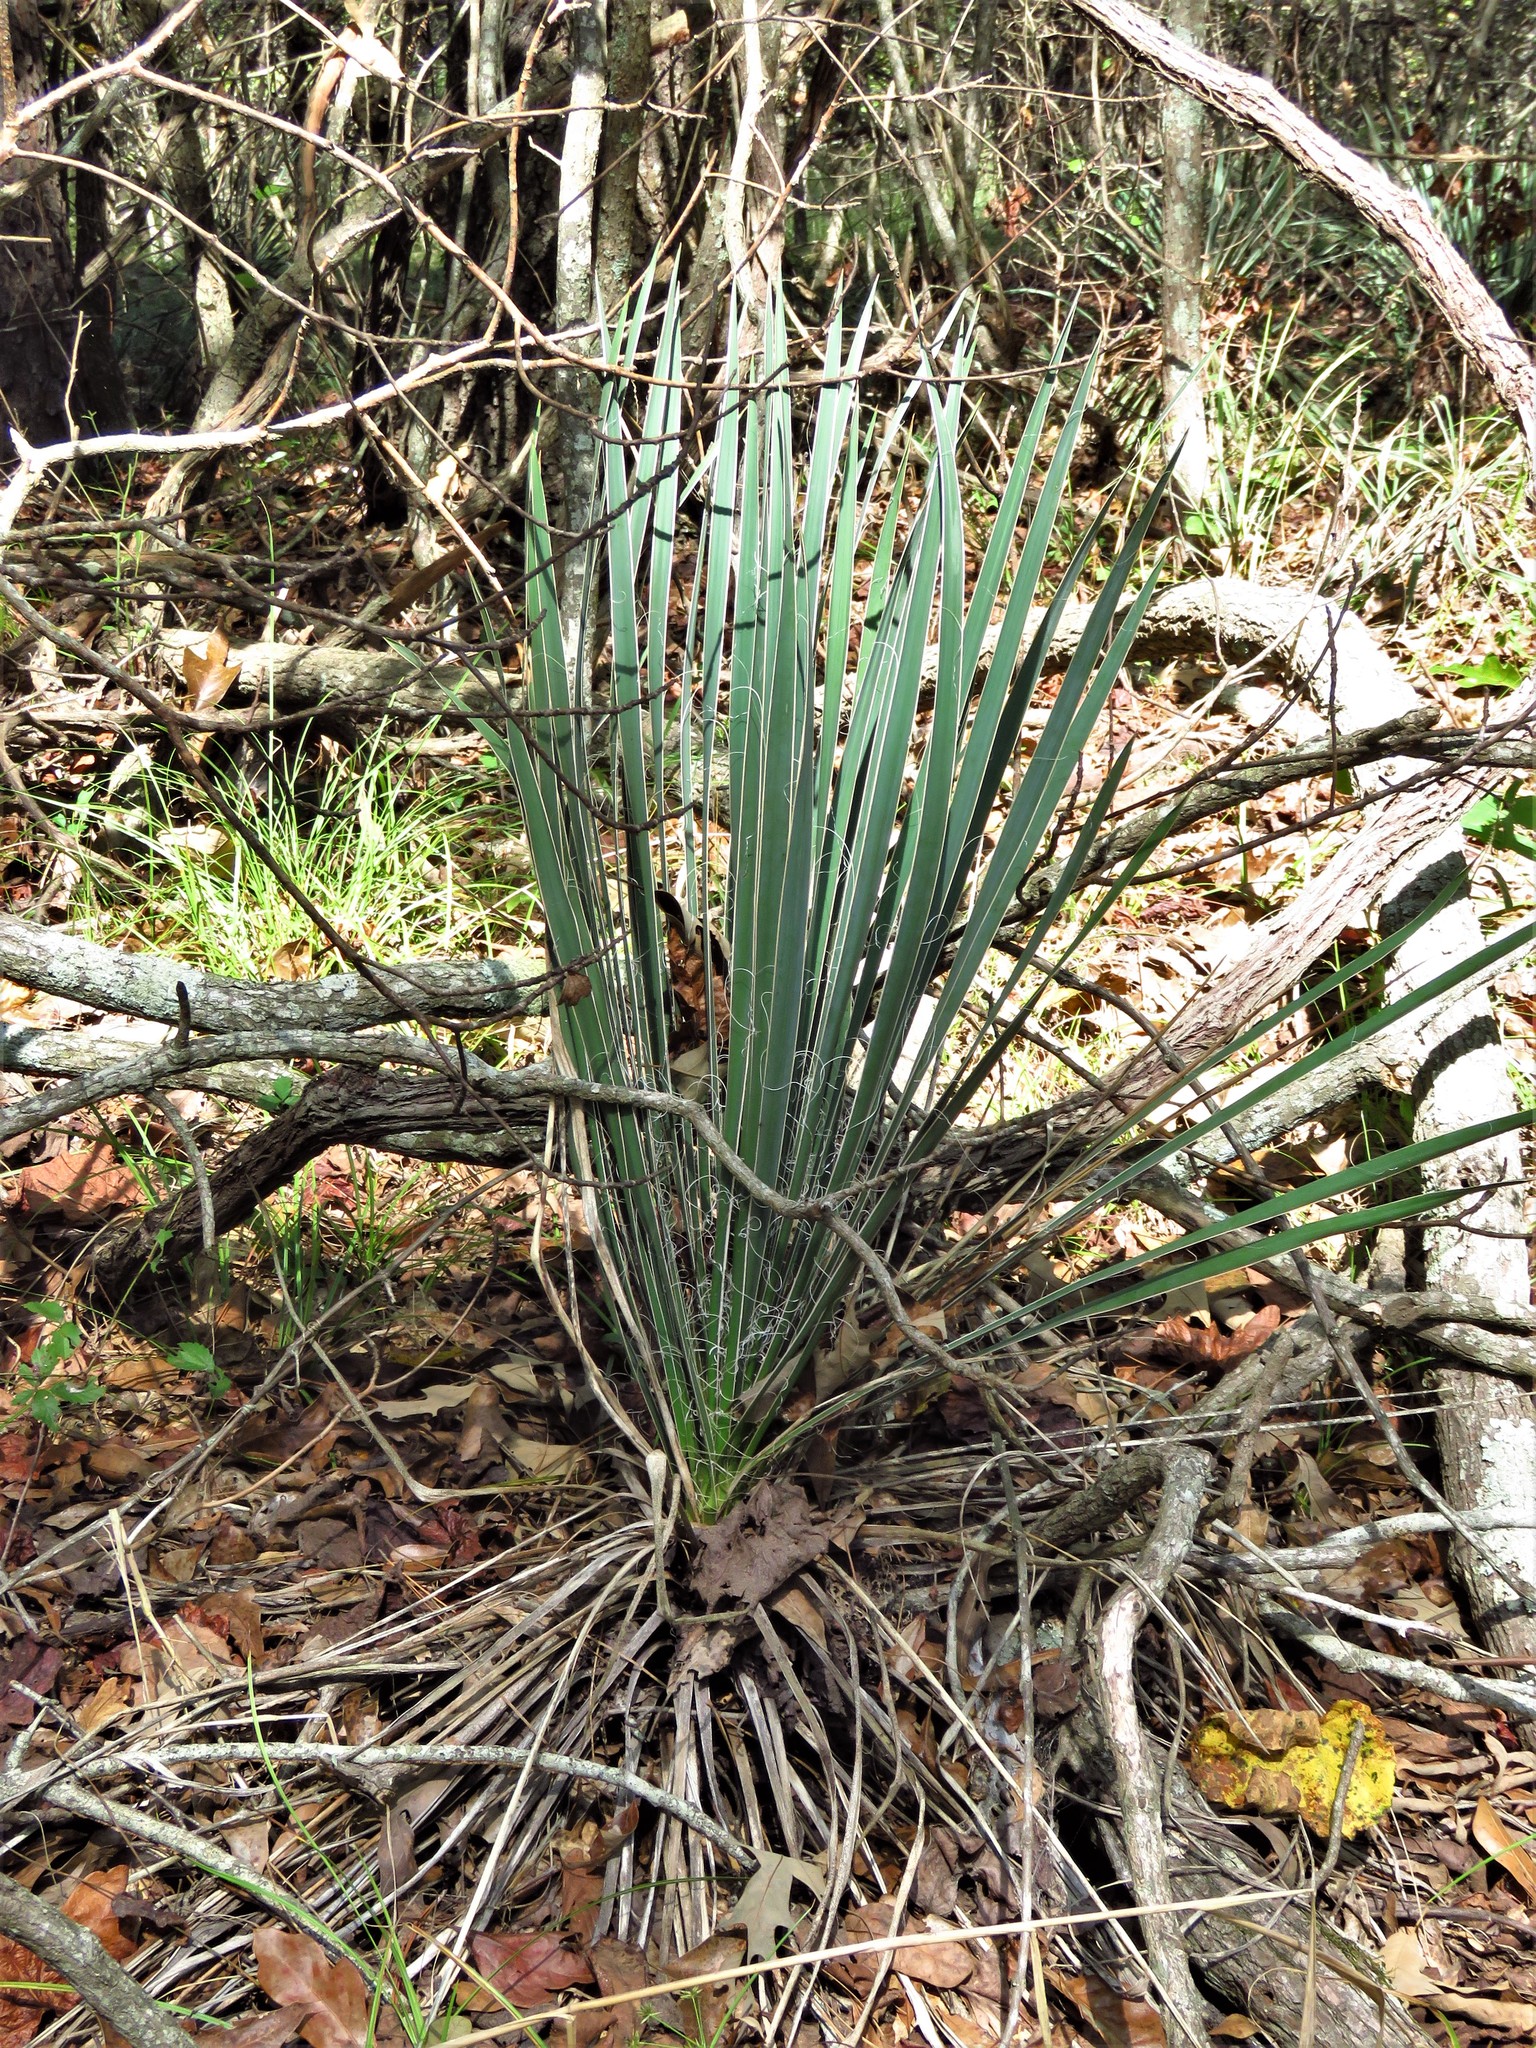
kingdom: Plantae
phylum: Tracheophyta
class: Liliopsida
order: Asparagales
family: Asparagaceae
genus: Yucca
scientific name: Yucca flaccida
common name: Adam's-needle
